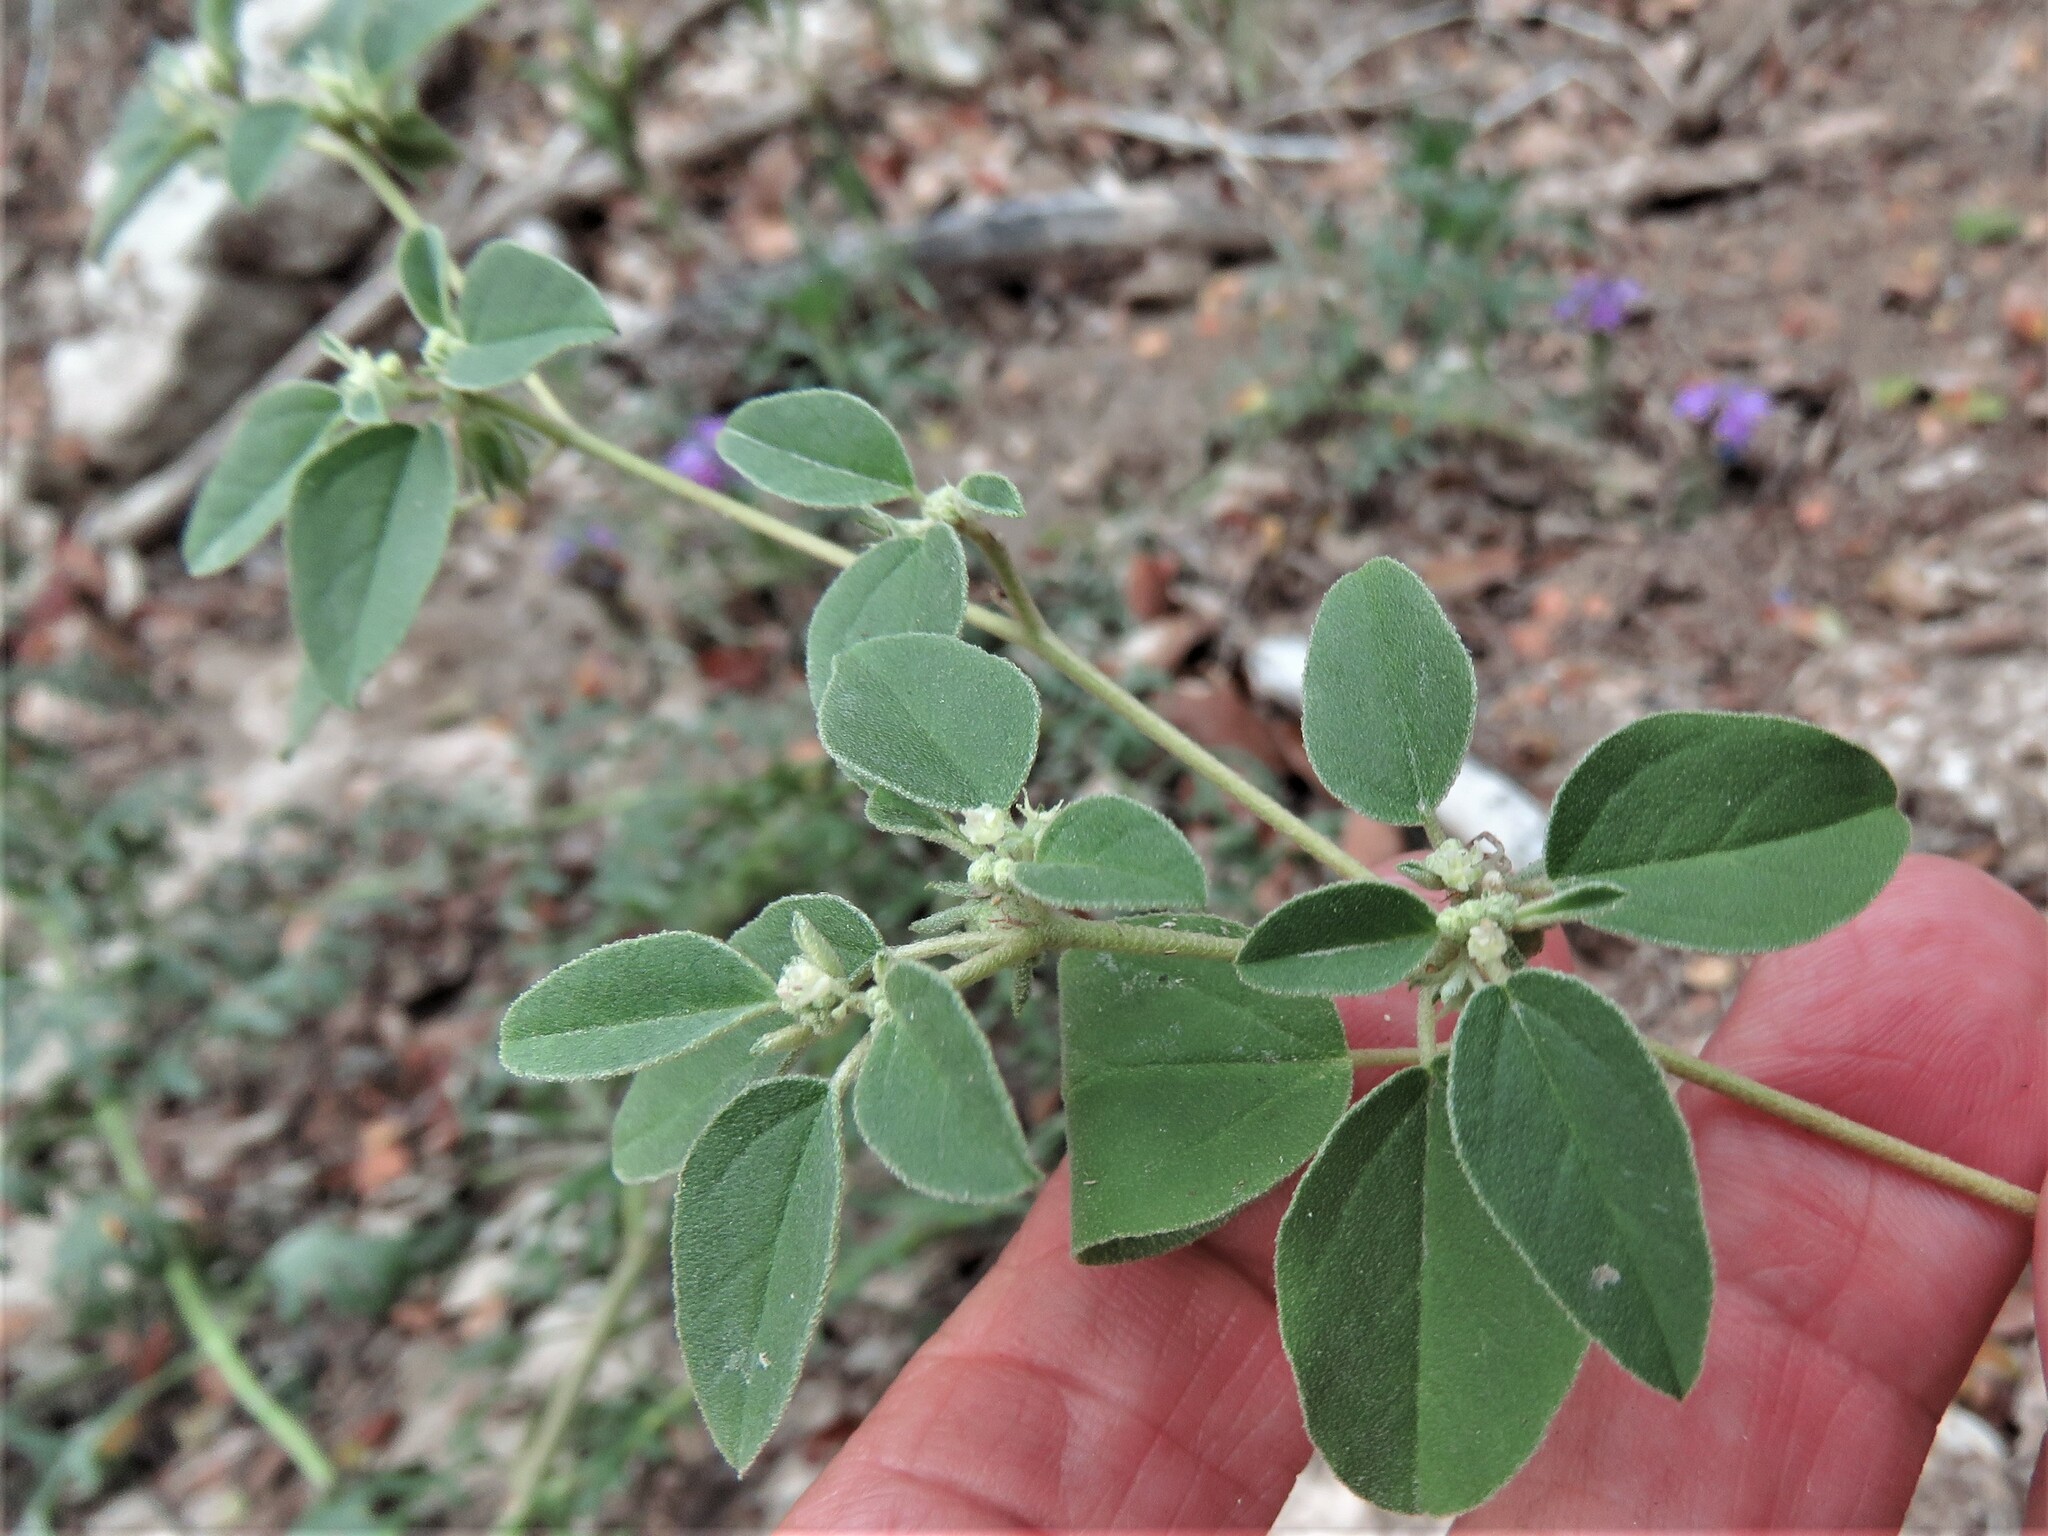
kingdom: Plantae
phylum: Tracheophyta
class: Magnoliopsida
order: Malpighiales
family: Euphorbiaceae
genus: Croton
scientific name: Croton monanthogynus
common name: One-seed croton
